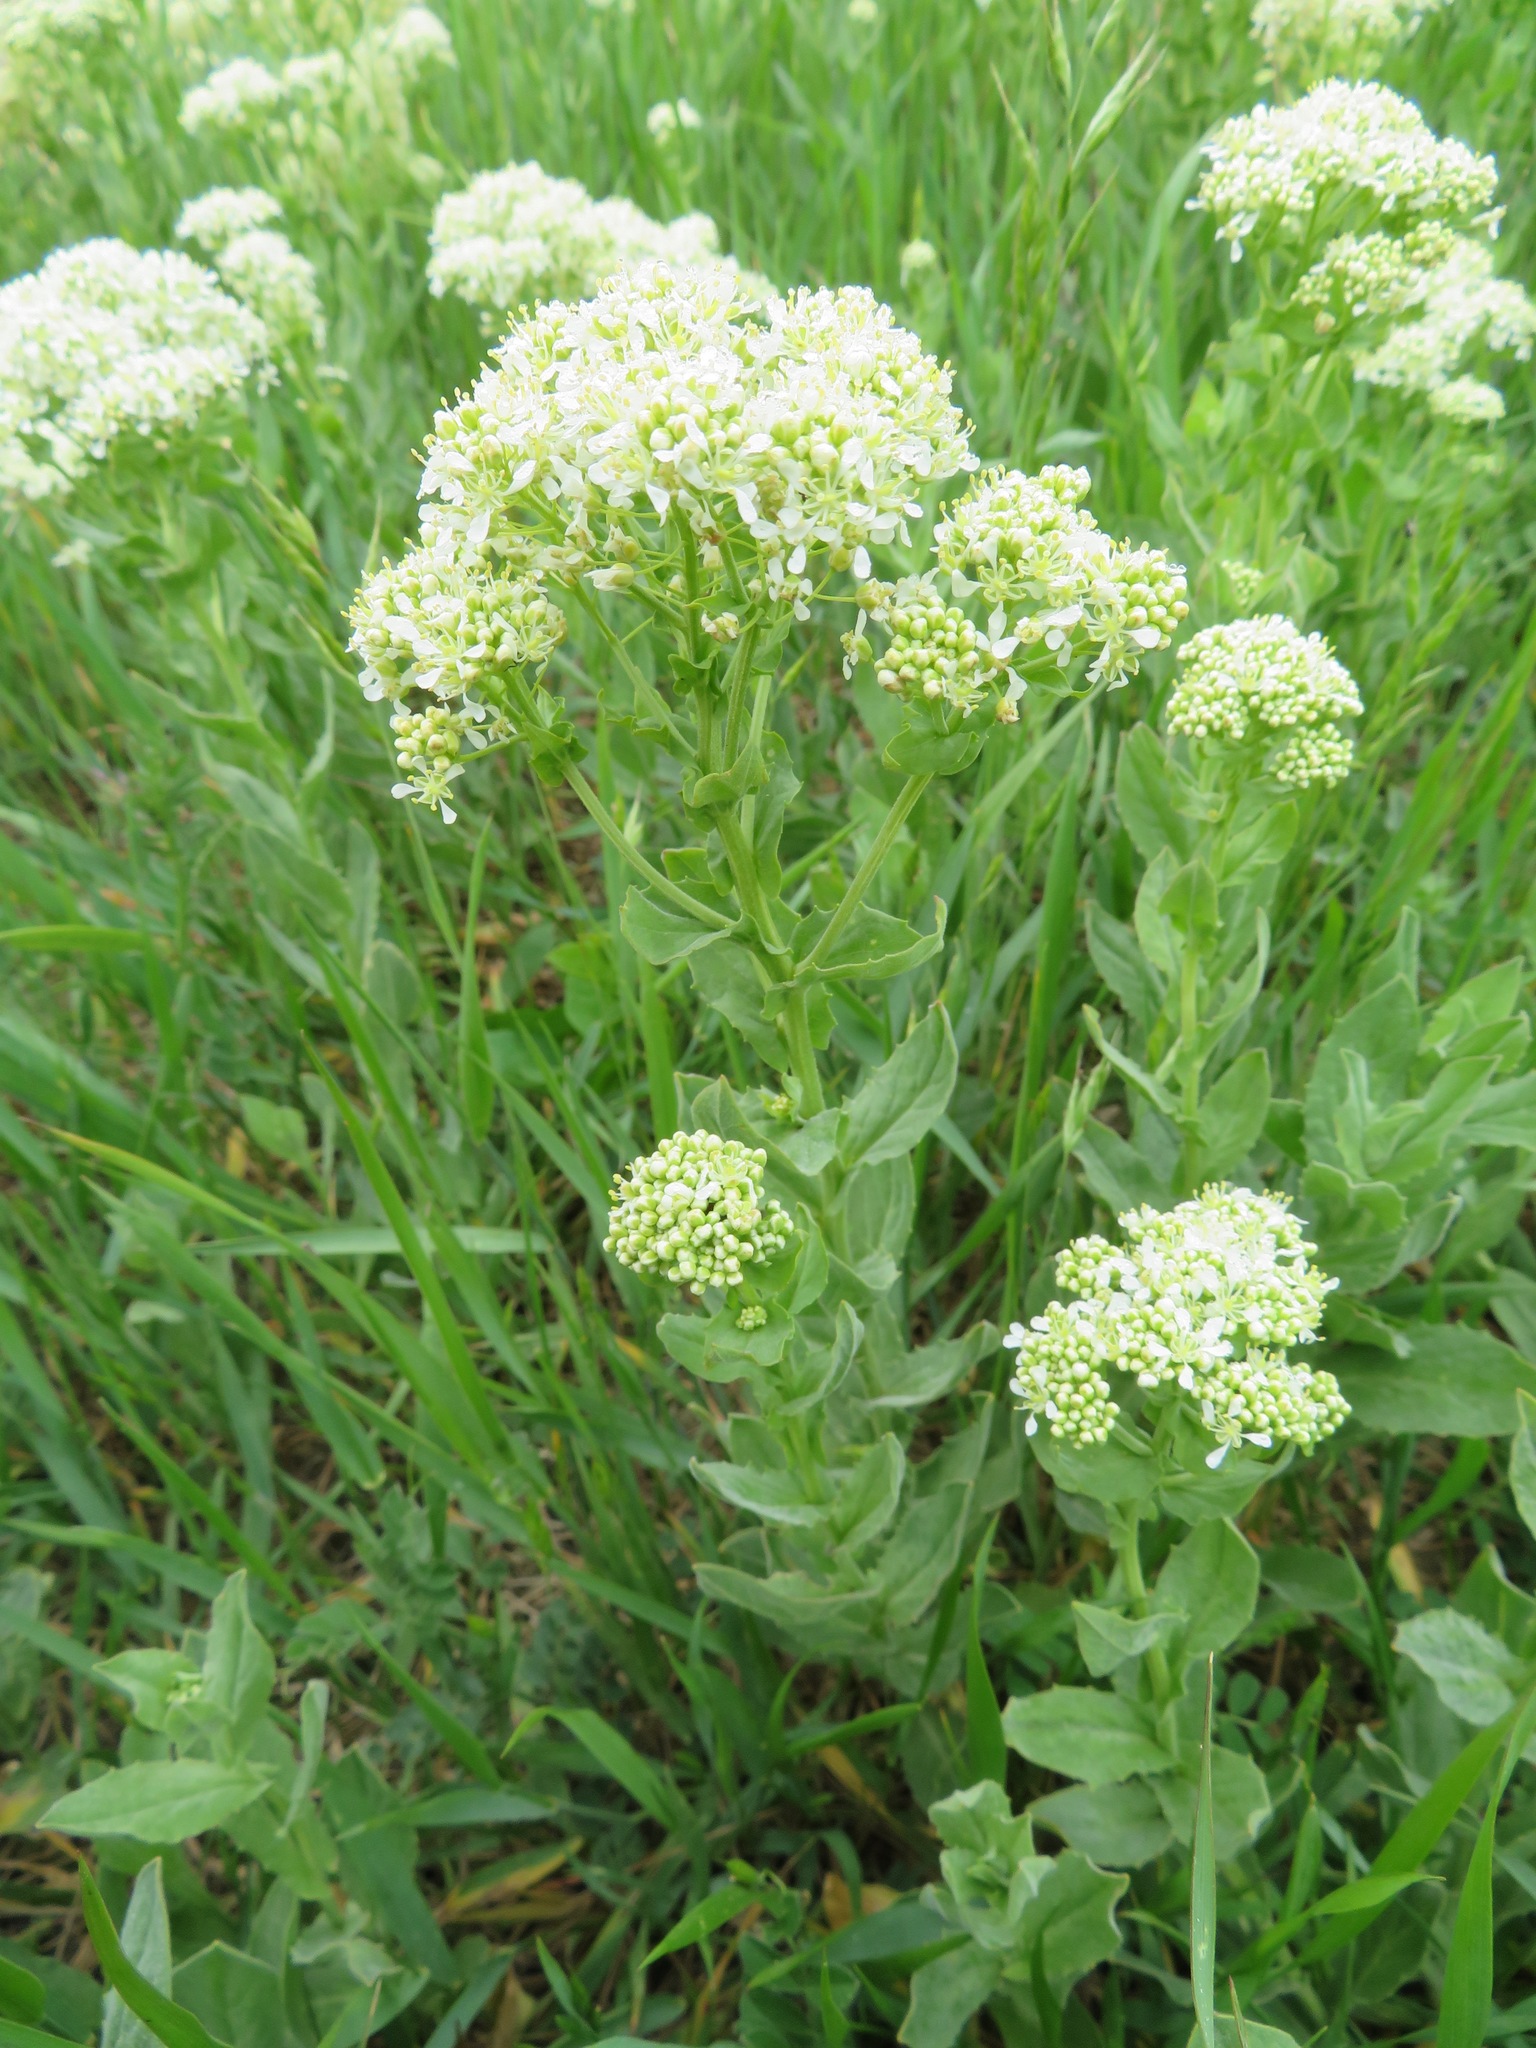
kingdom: Plantae
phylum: Tracheophyta
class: Magnoliopsida
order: Brassicales
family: Brassicaceae
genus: Lepidium
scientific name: Lepidium draba
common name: Hoary cress
